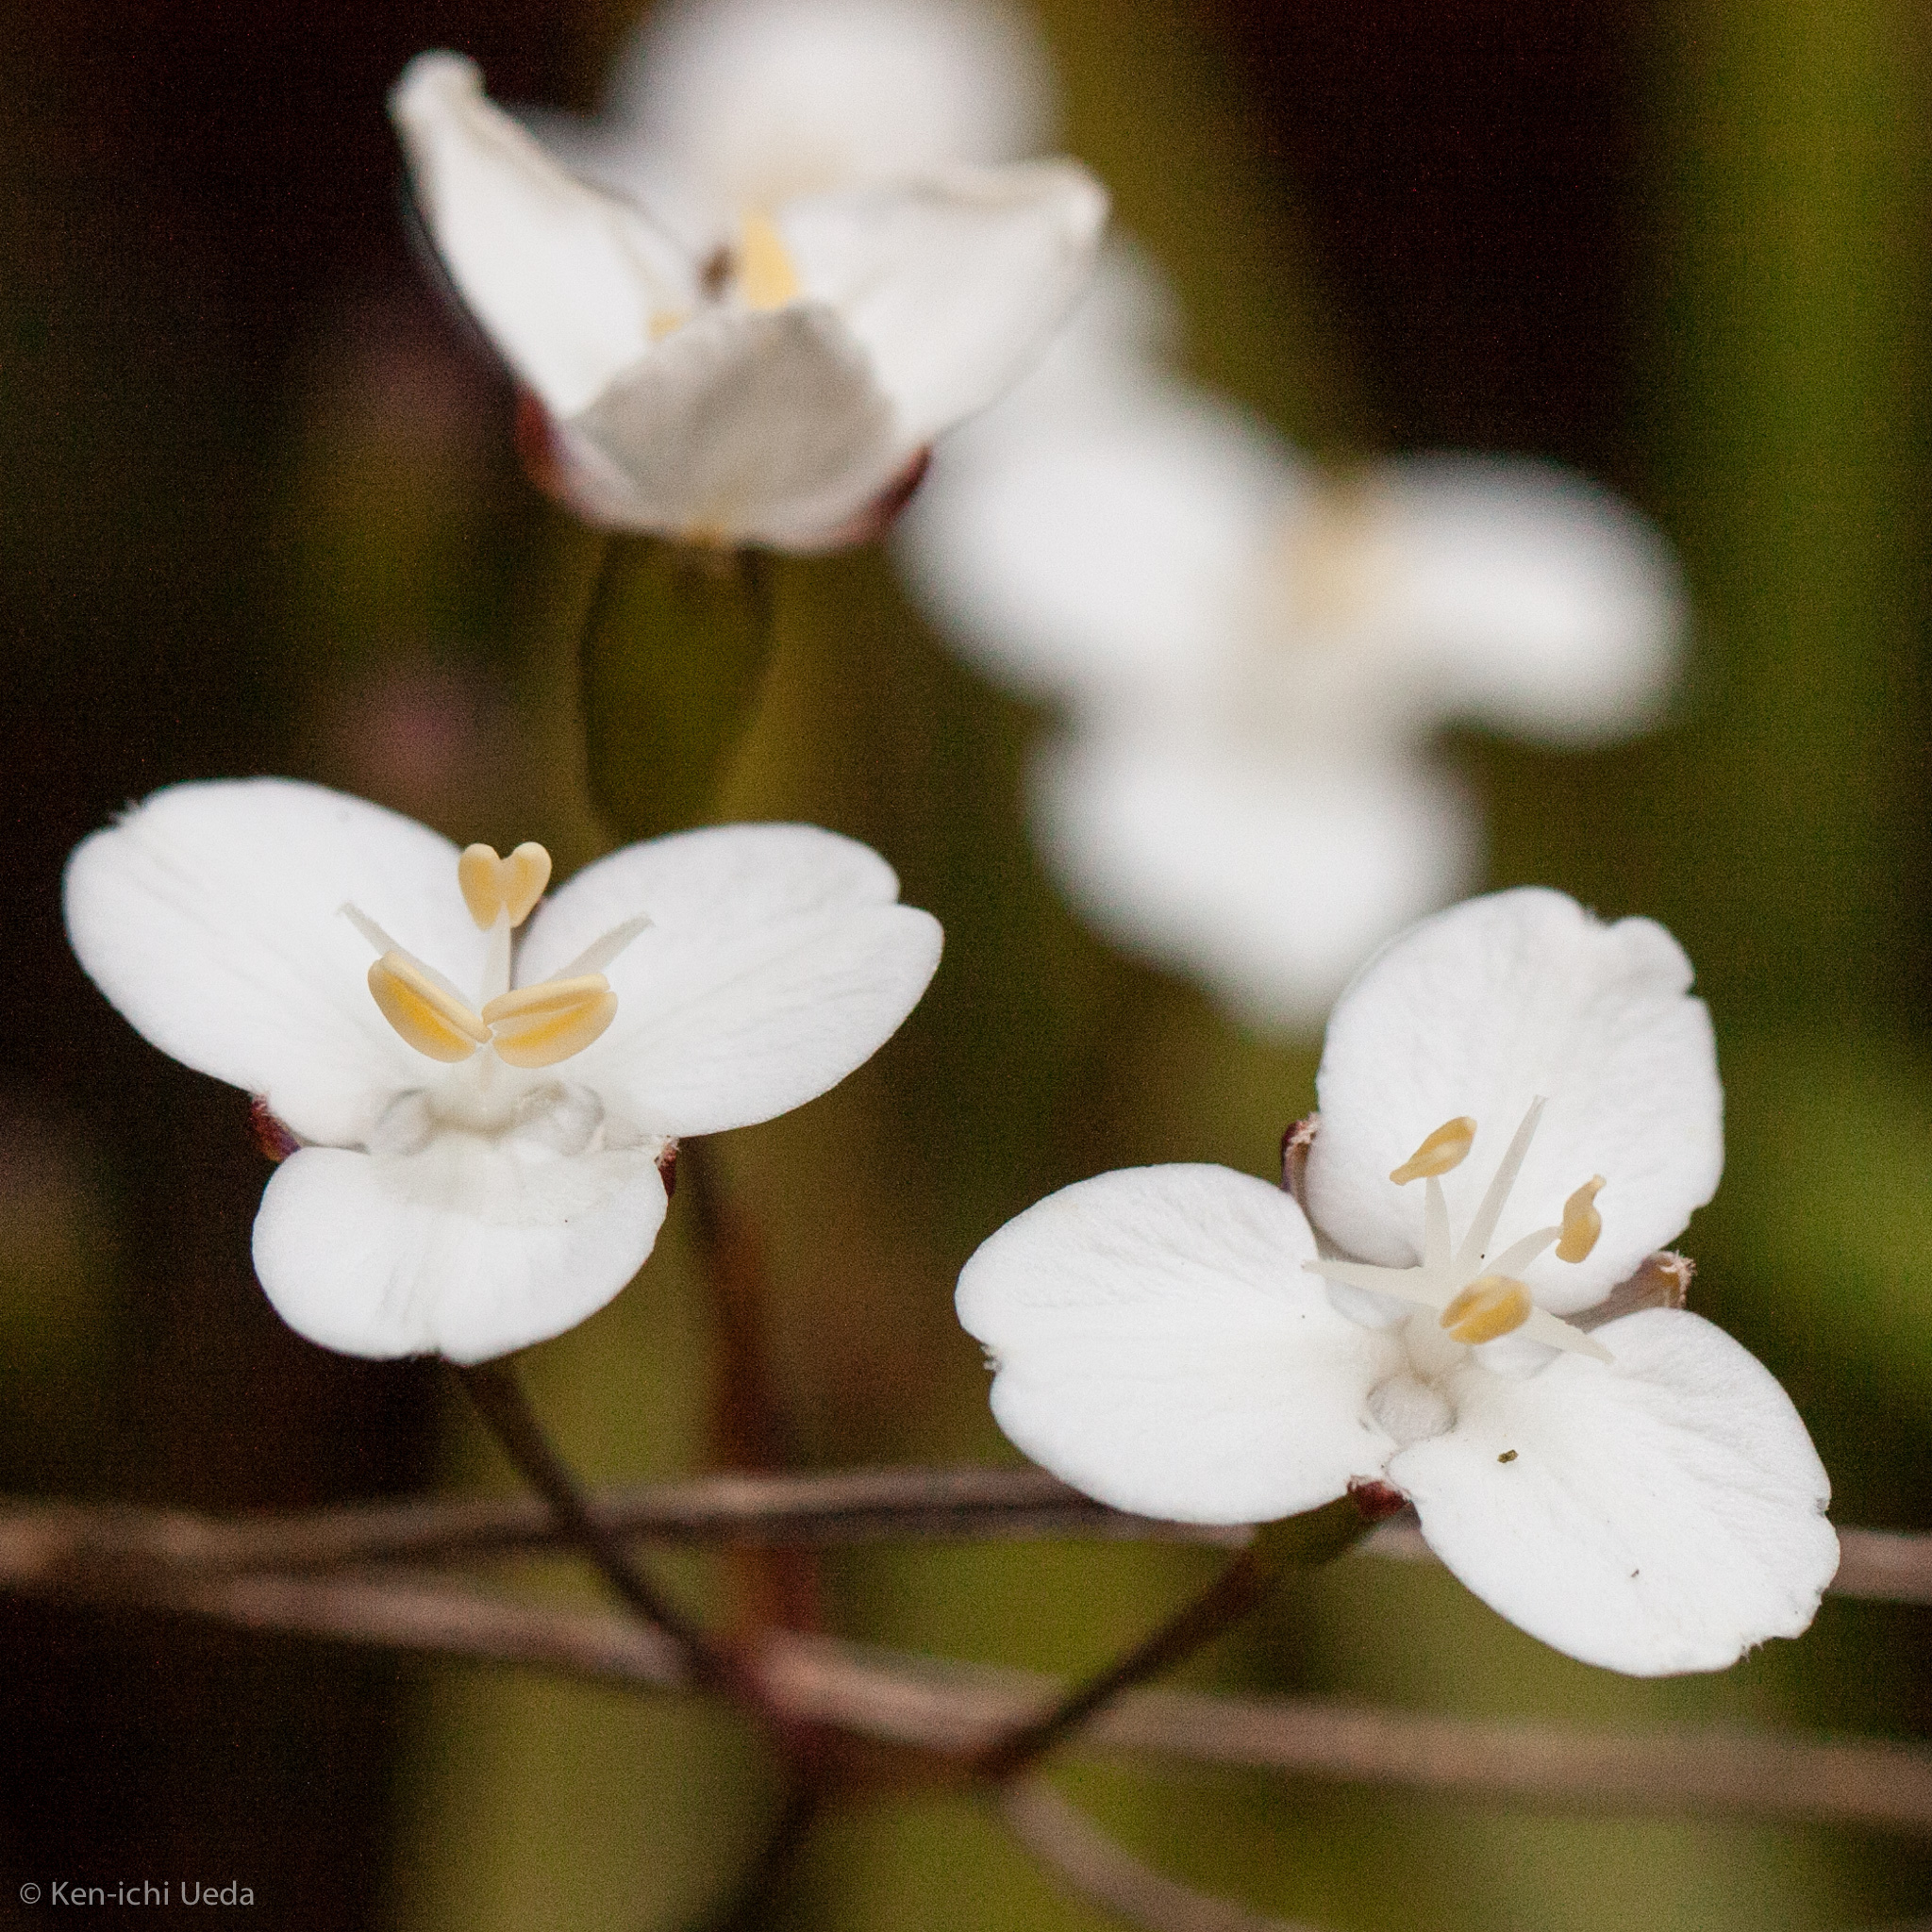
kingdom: Plantae
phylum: Tracheophyta
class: Liliopsida
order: Asparagales
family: Iridaceae
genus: Libertia
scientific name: Libertia ixioides
